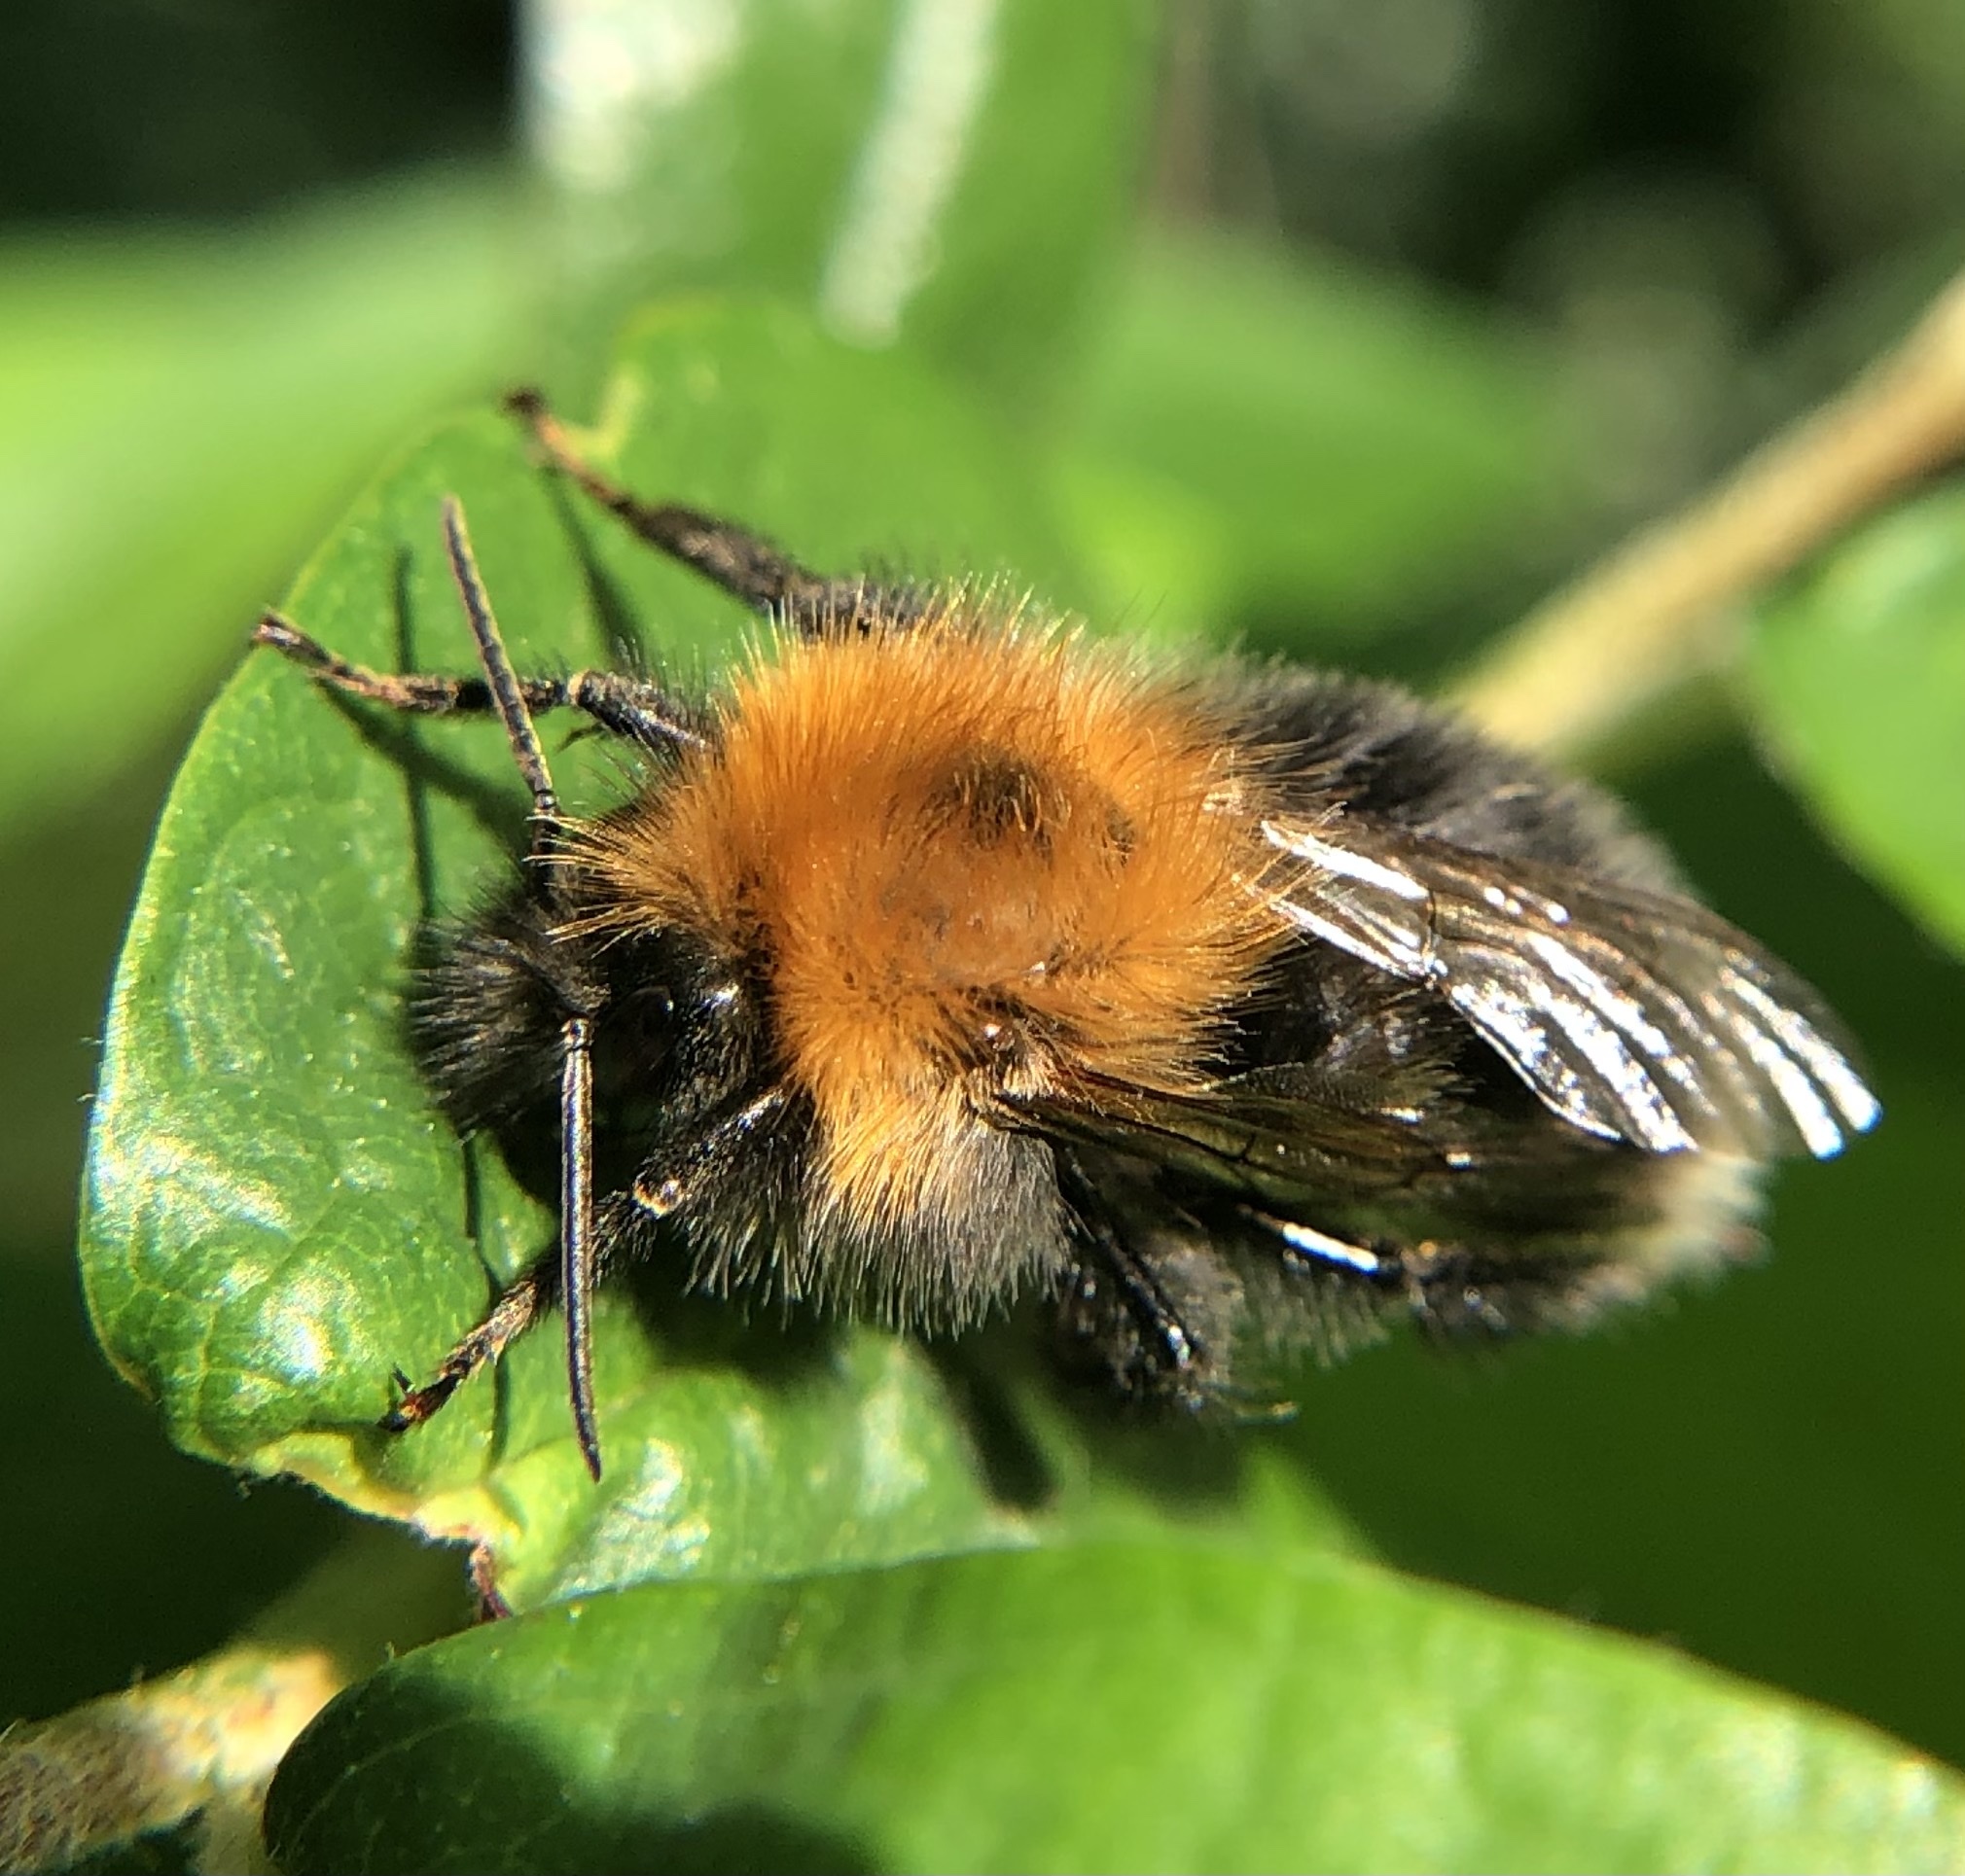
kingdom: Animalia
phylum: Arthropoda
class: Insecta
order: Hymenoptera
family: Apidae
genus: Bombus
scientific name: Bombus hypnorum
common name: New garden bumblebee
